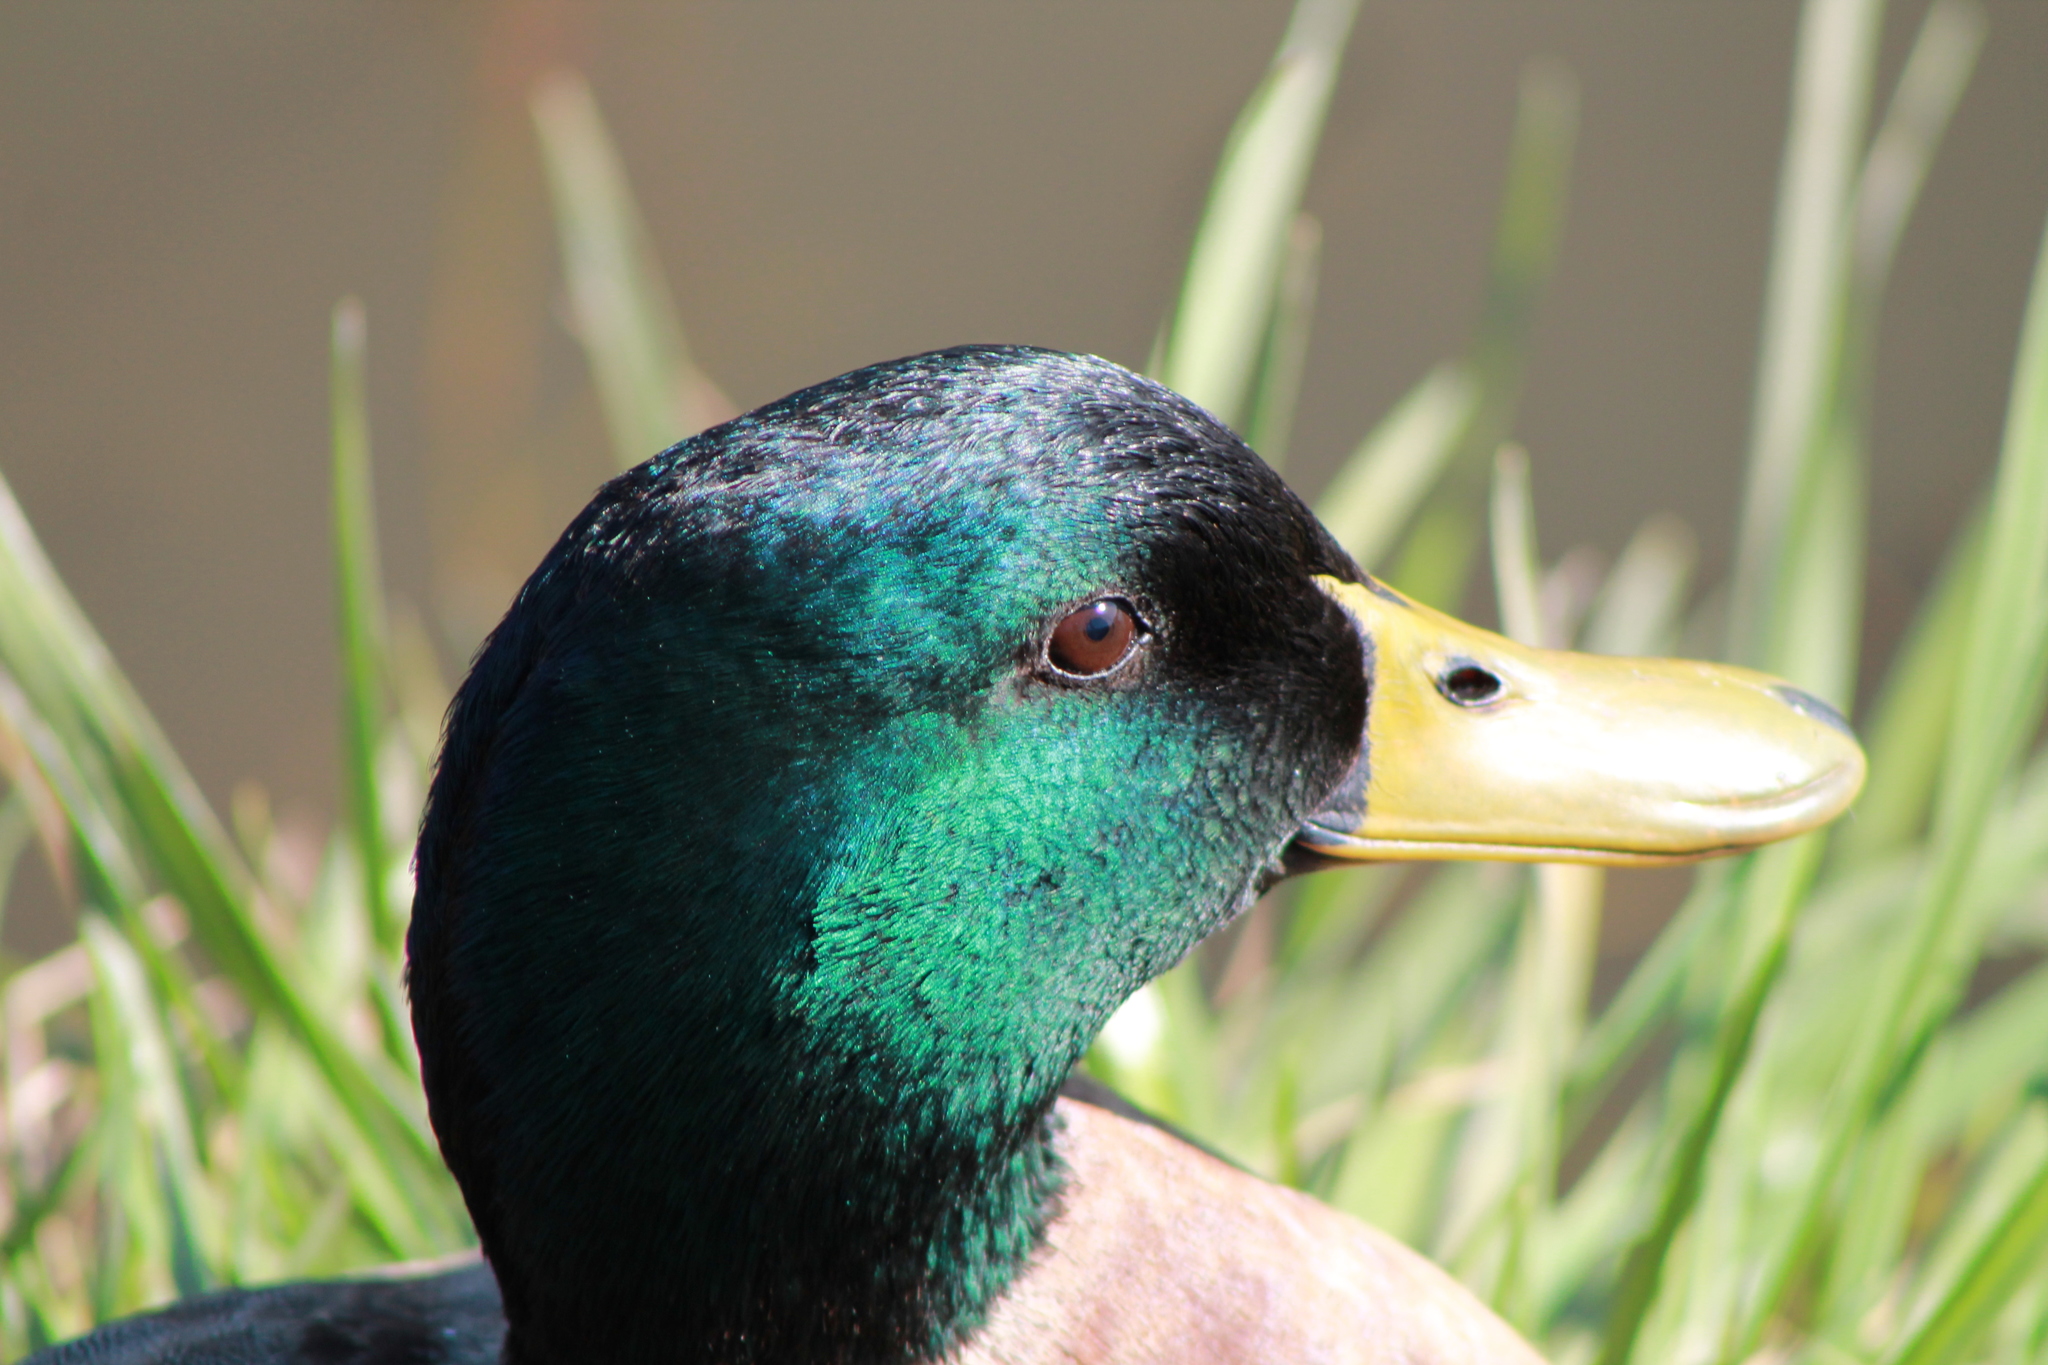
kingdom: Animalia
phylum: Chordata
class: Aves
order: Anseriformes
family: Anatidae
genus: Anas
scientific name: Anas platyrhynchos
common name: Mallard
